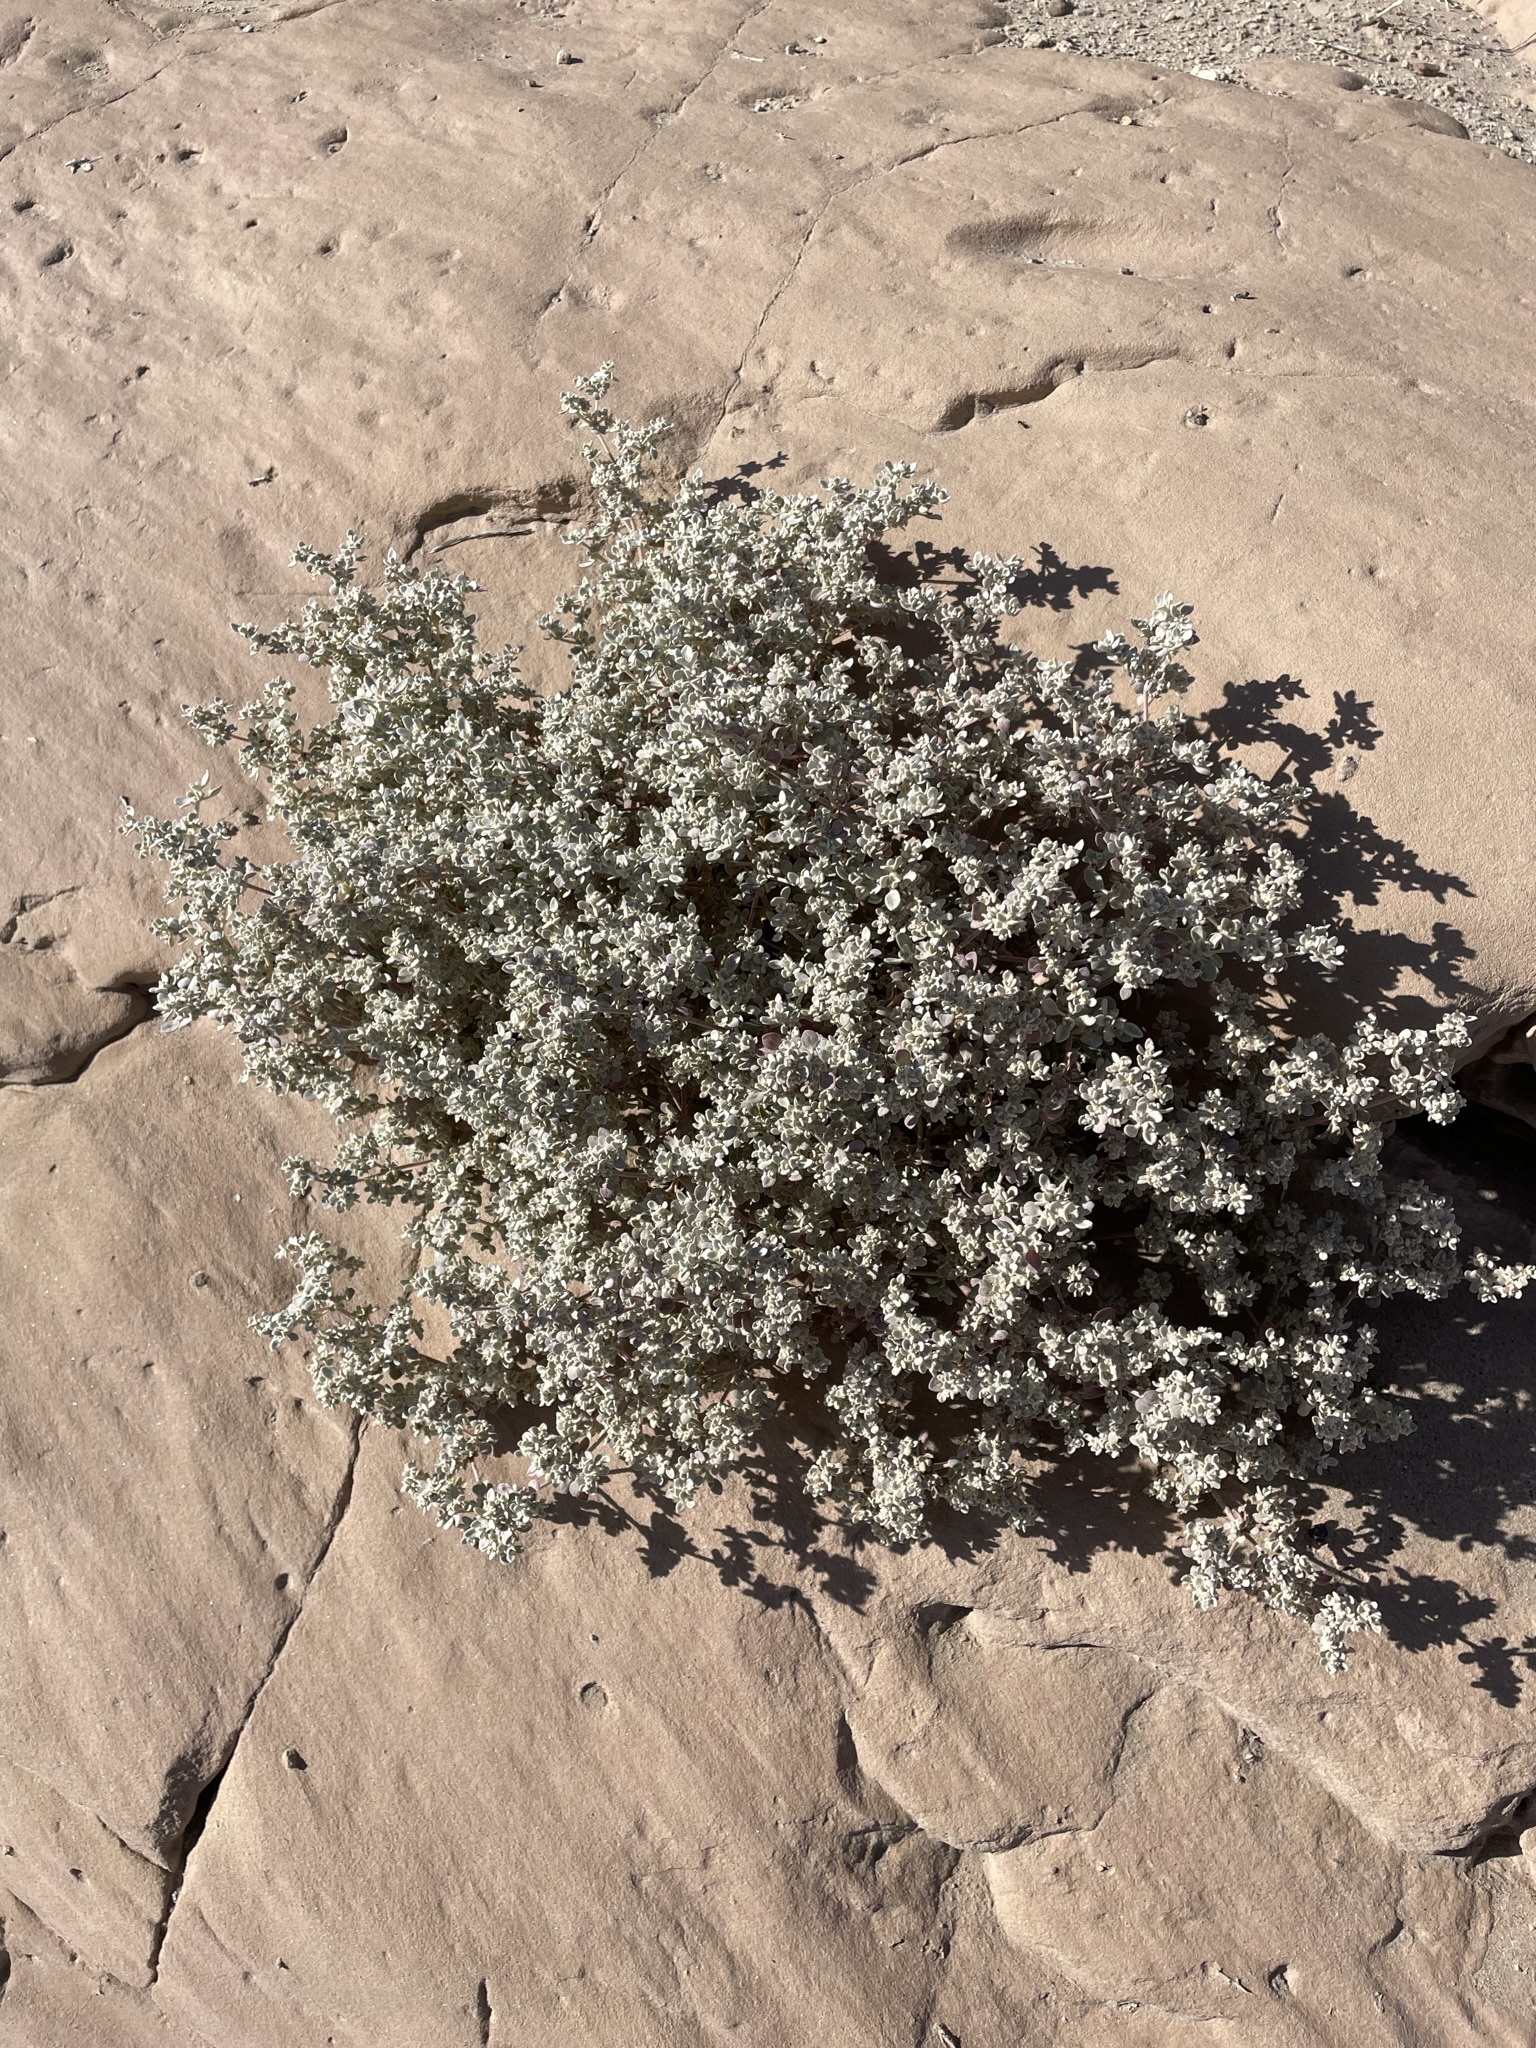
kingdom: Plantae
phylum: Tracheophyta
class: Magnoliopsida
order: Caryophyllales
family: Amaranthaceae
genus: Tidestromia
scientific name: Tidestromia suffruticosa
